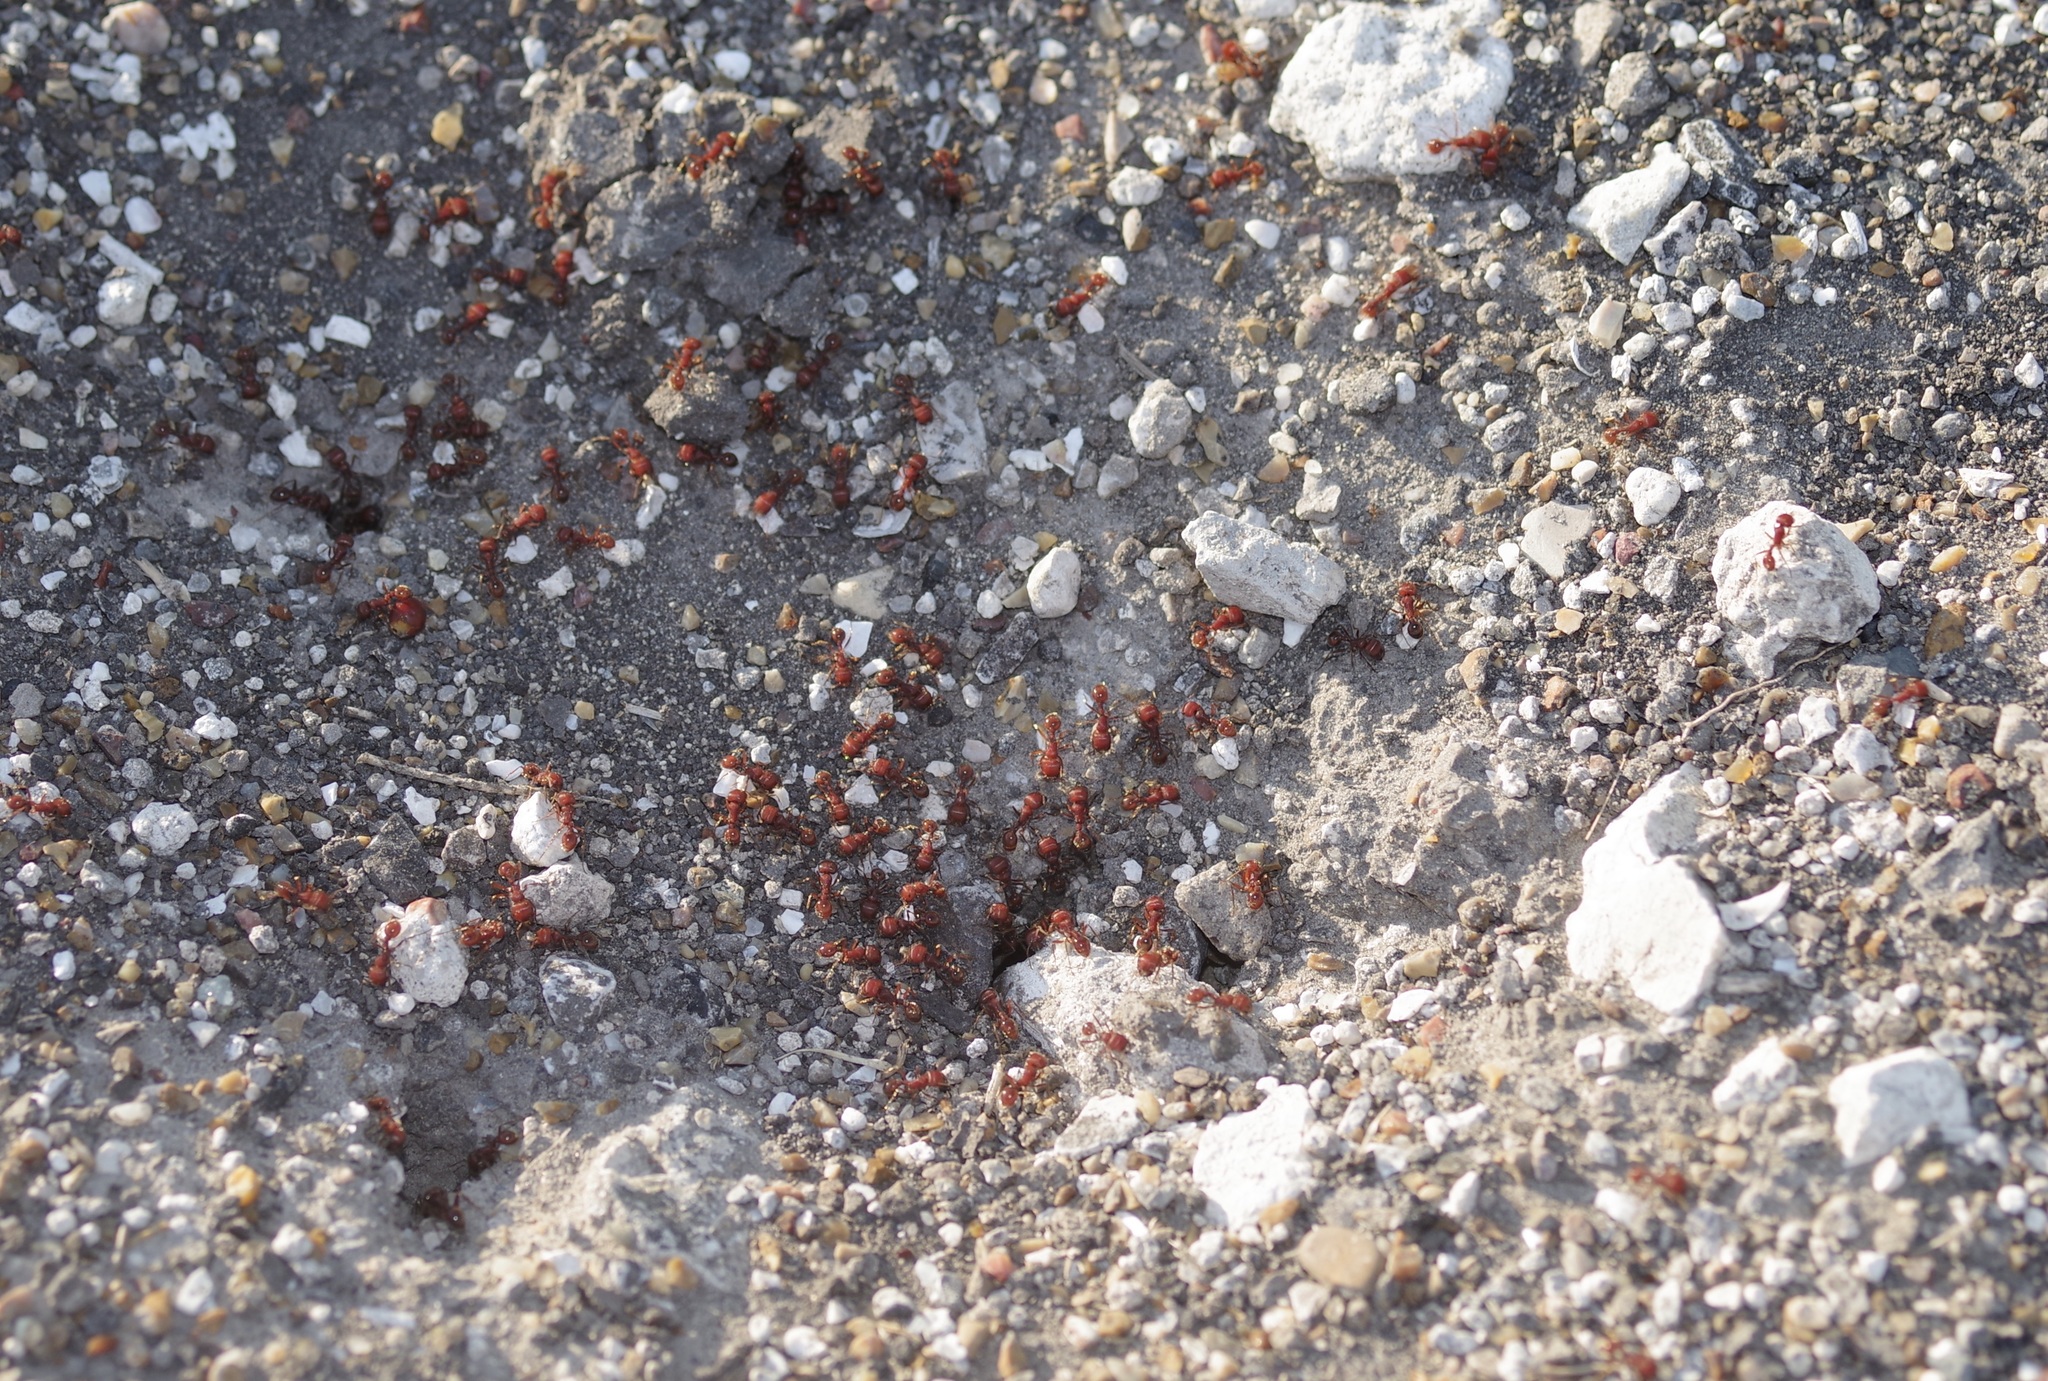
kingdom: Animalia
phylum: Arthropoda
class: Insecta
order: Hymenoptera
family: Formicidae
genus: Pogonomyrmex
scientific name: Pogonomyrmex barbatus
